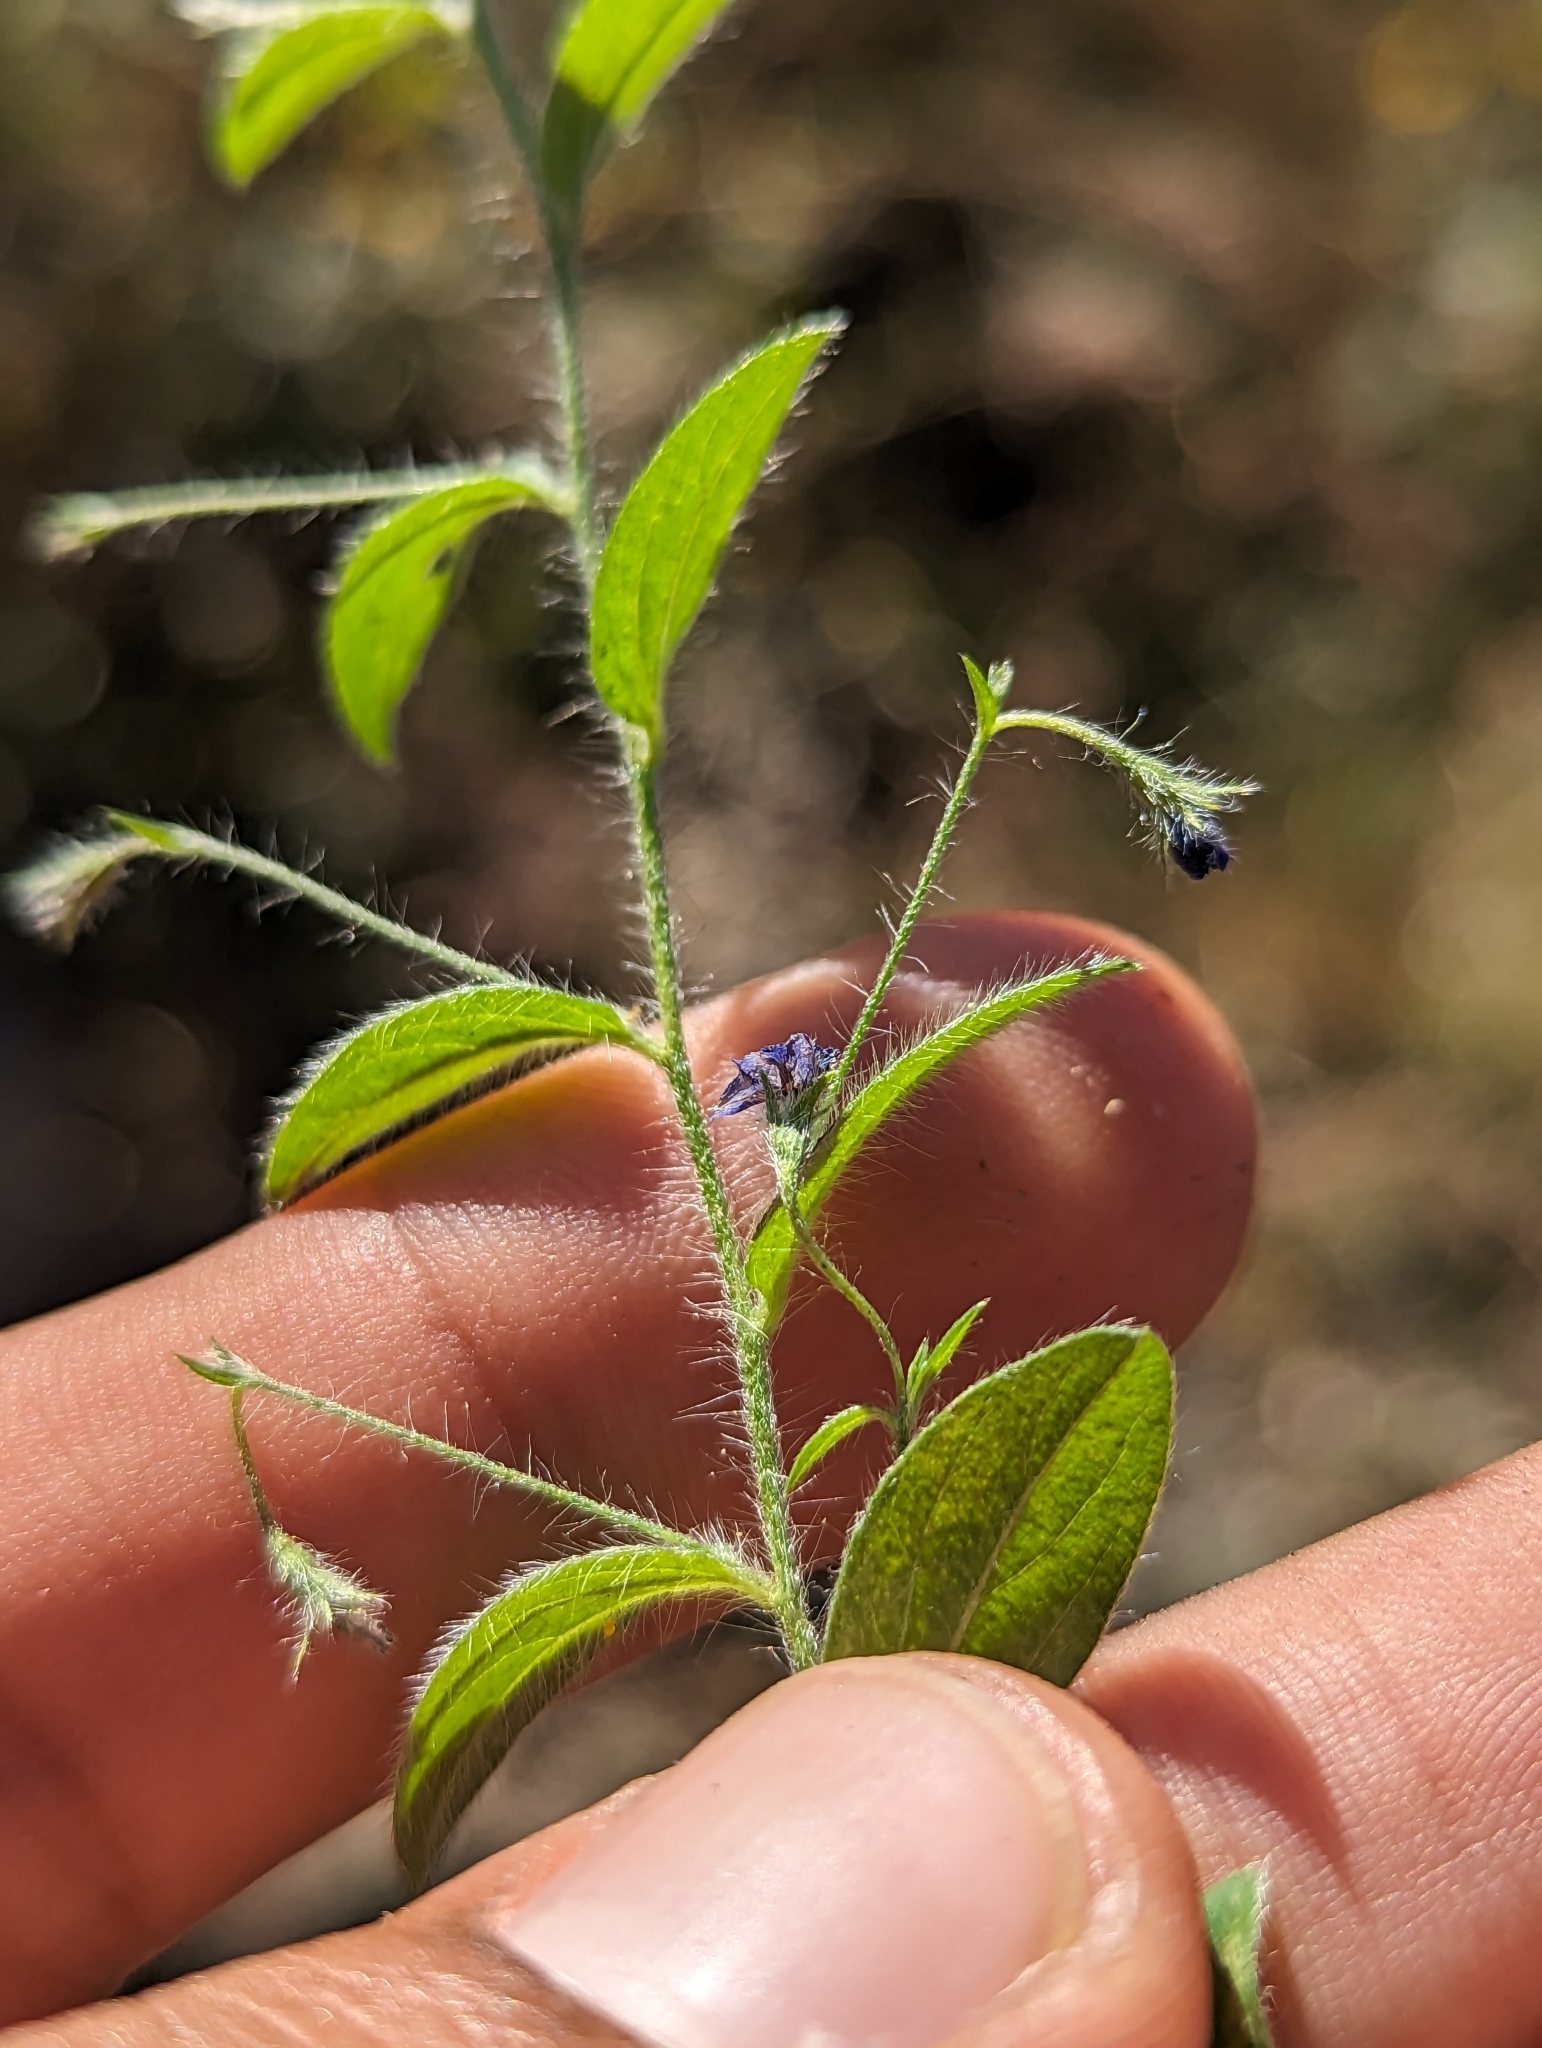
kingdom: Plantae
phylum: Tracheophyta
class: Magnoliopsida
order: Solanales
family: Convolvulaceae
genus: Evolvulus
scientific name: Evolvulus alsinoides
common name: Slender dwarf morning-glory
